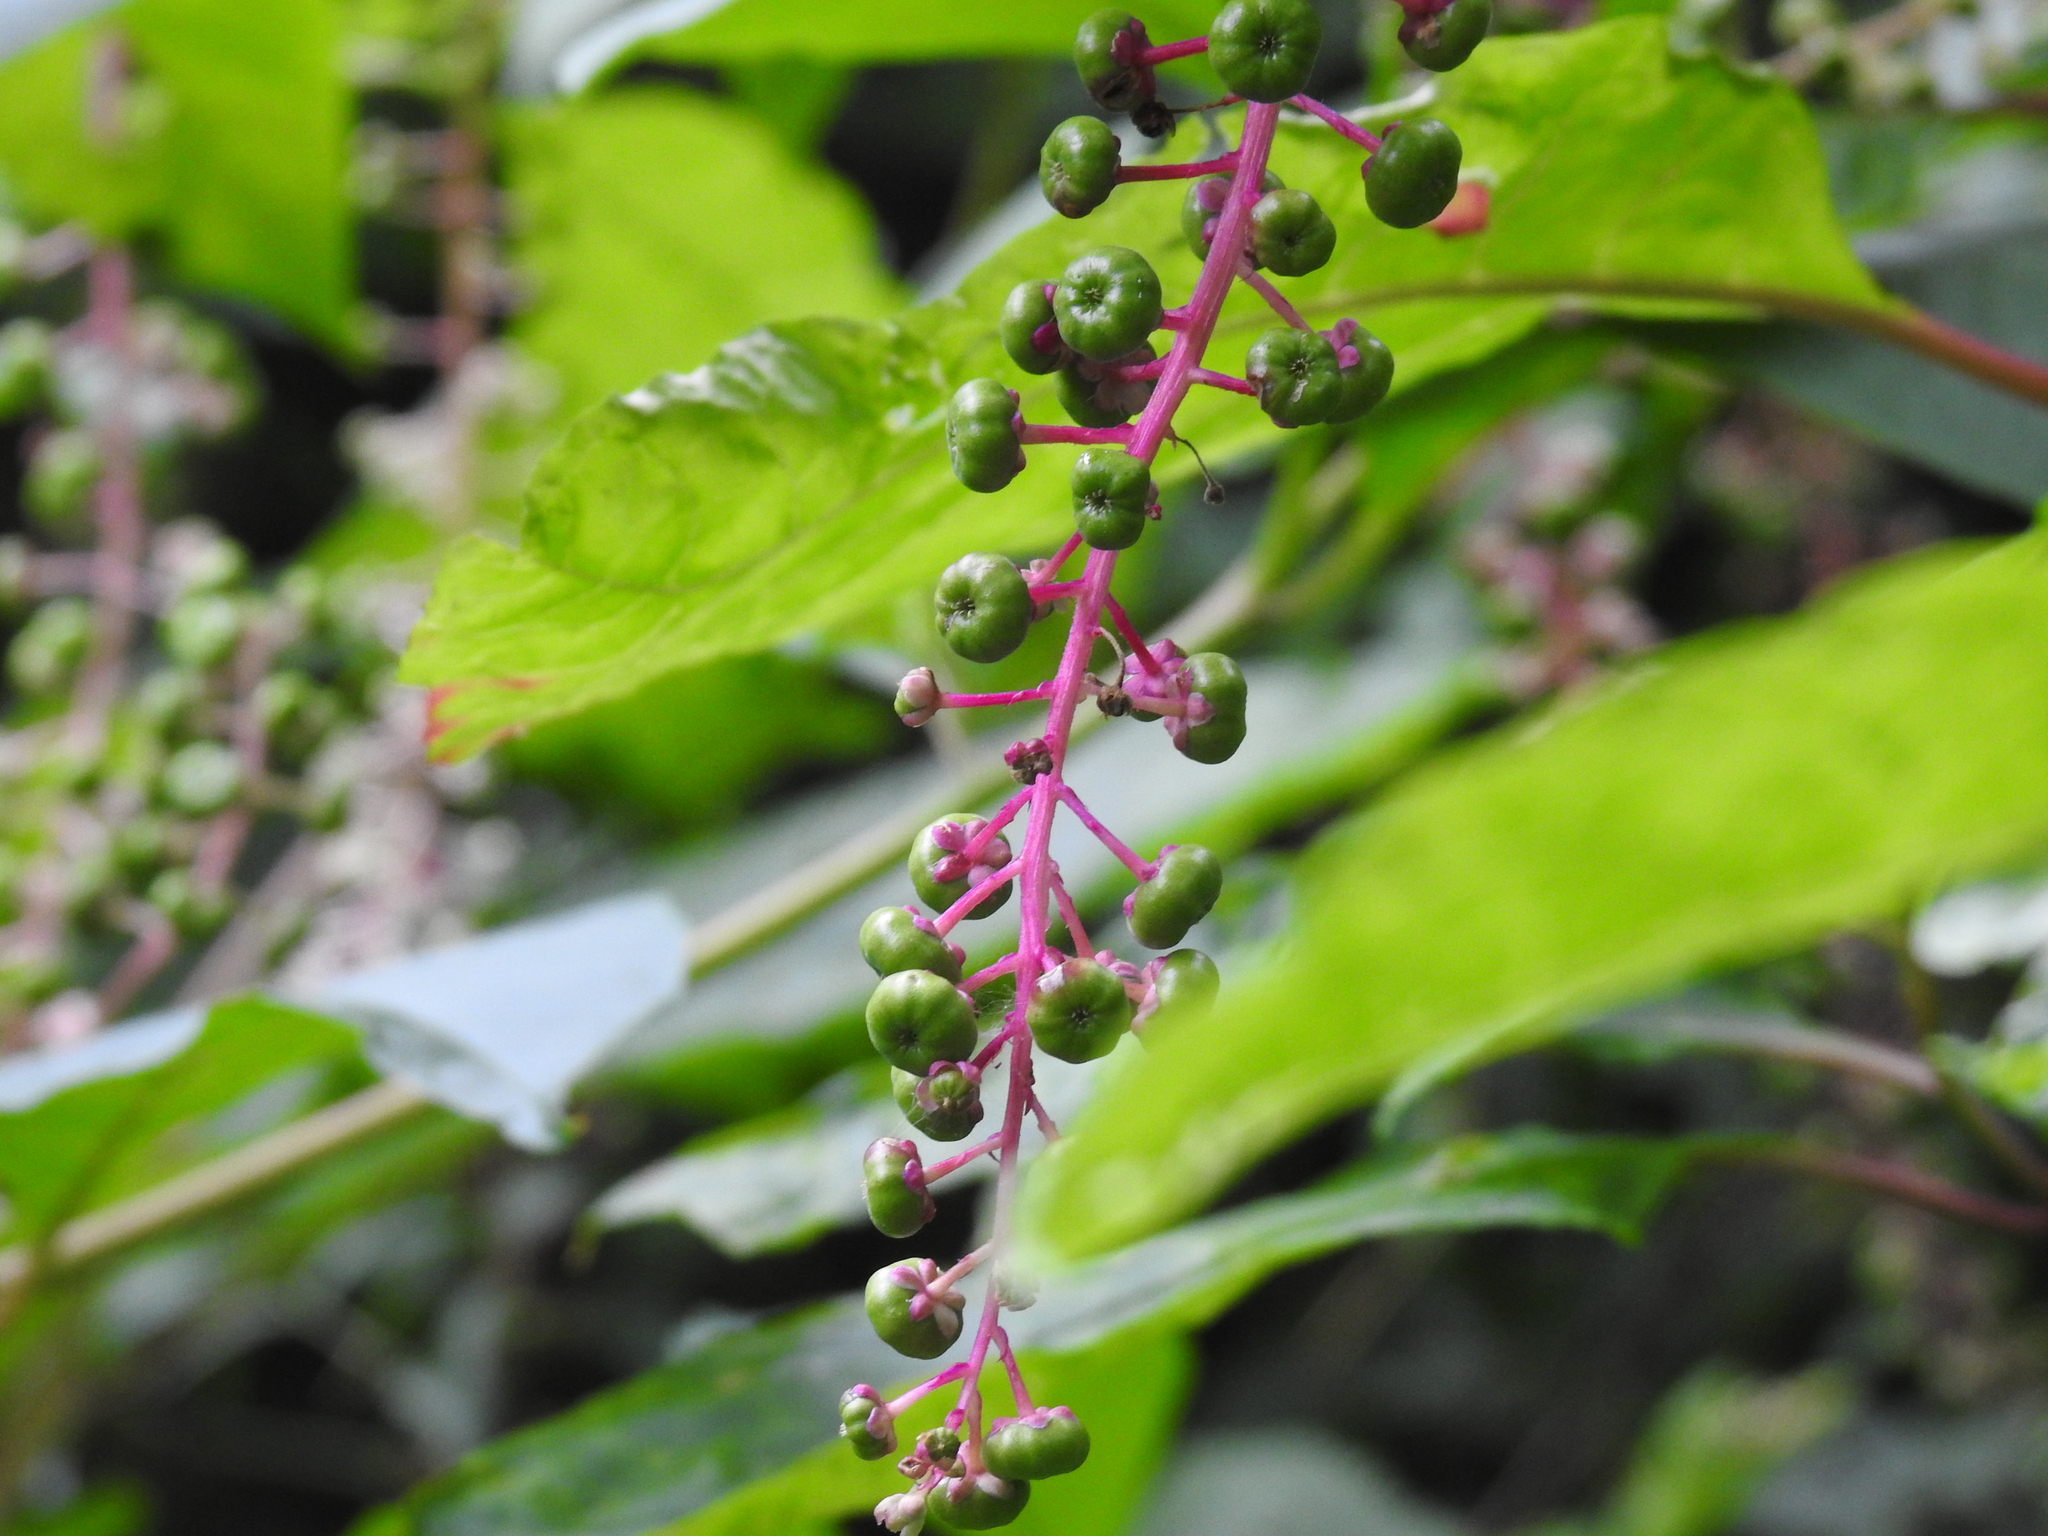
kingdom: Plantae
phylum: Tracheophyta
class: Magnoliopsida
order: Caryophyllales
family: Phytolaccaceae
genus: Phytolacca
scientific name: Phytolacca americana
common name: American pokeweed
